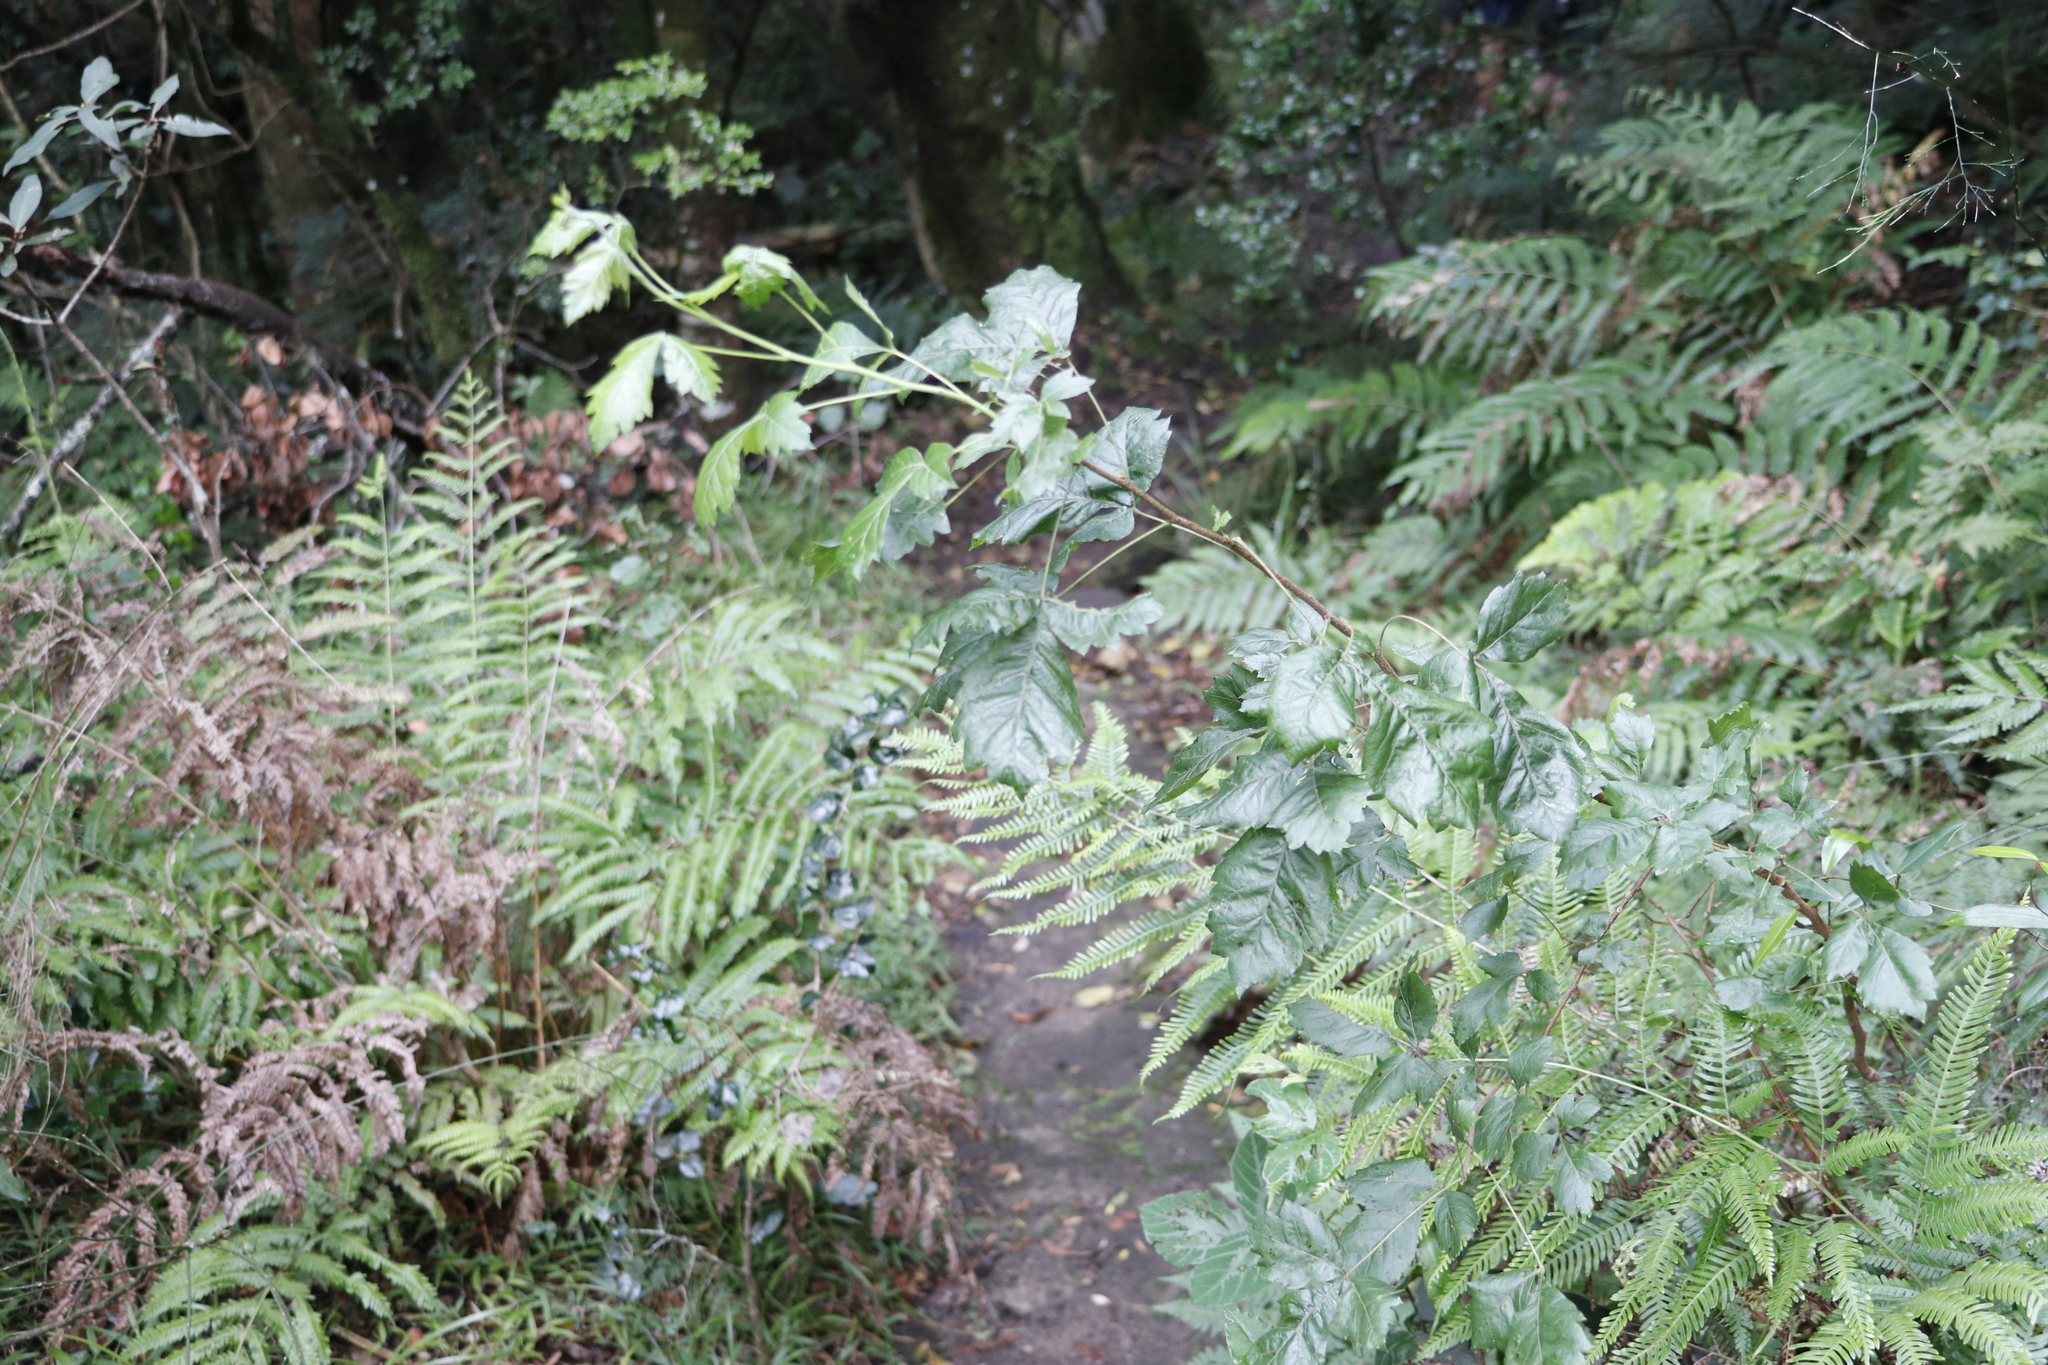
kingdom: Plantae
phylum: Tracheophyta
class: Magnoliopsida
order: Sapindales
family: Anacardiaceae
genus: Searsia
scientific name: Searsia dentata
